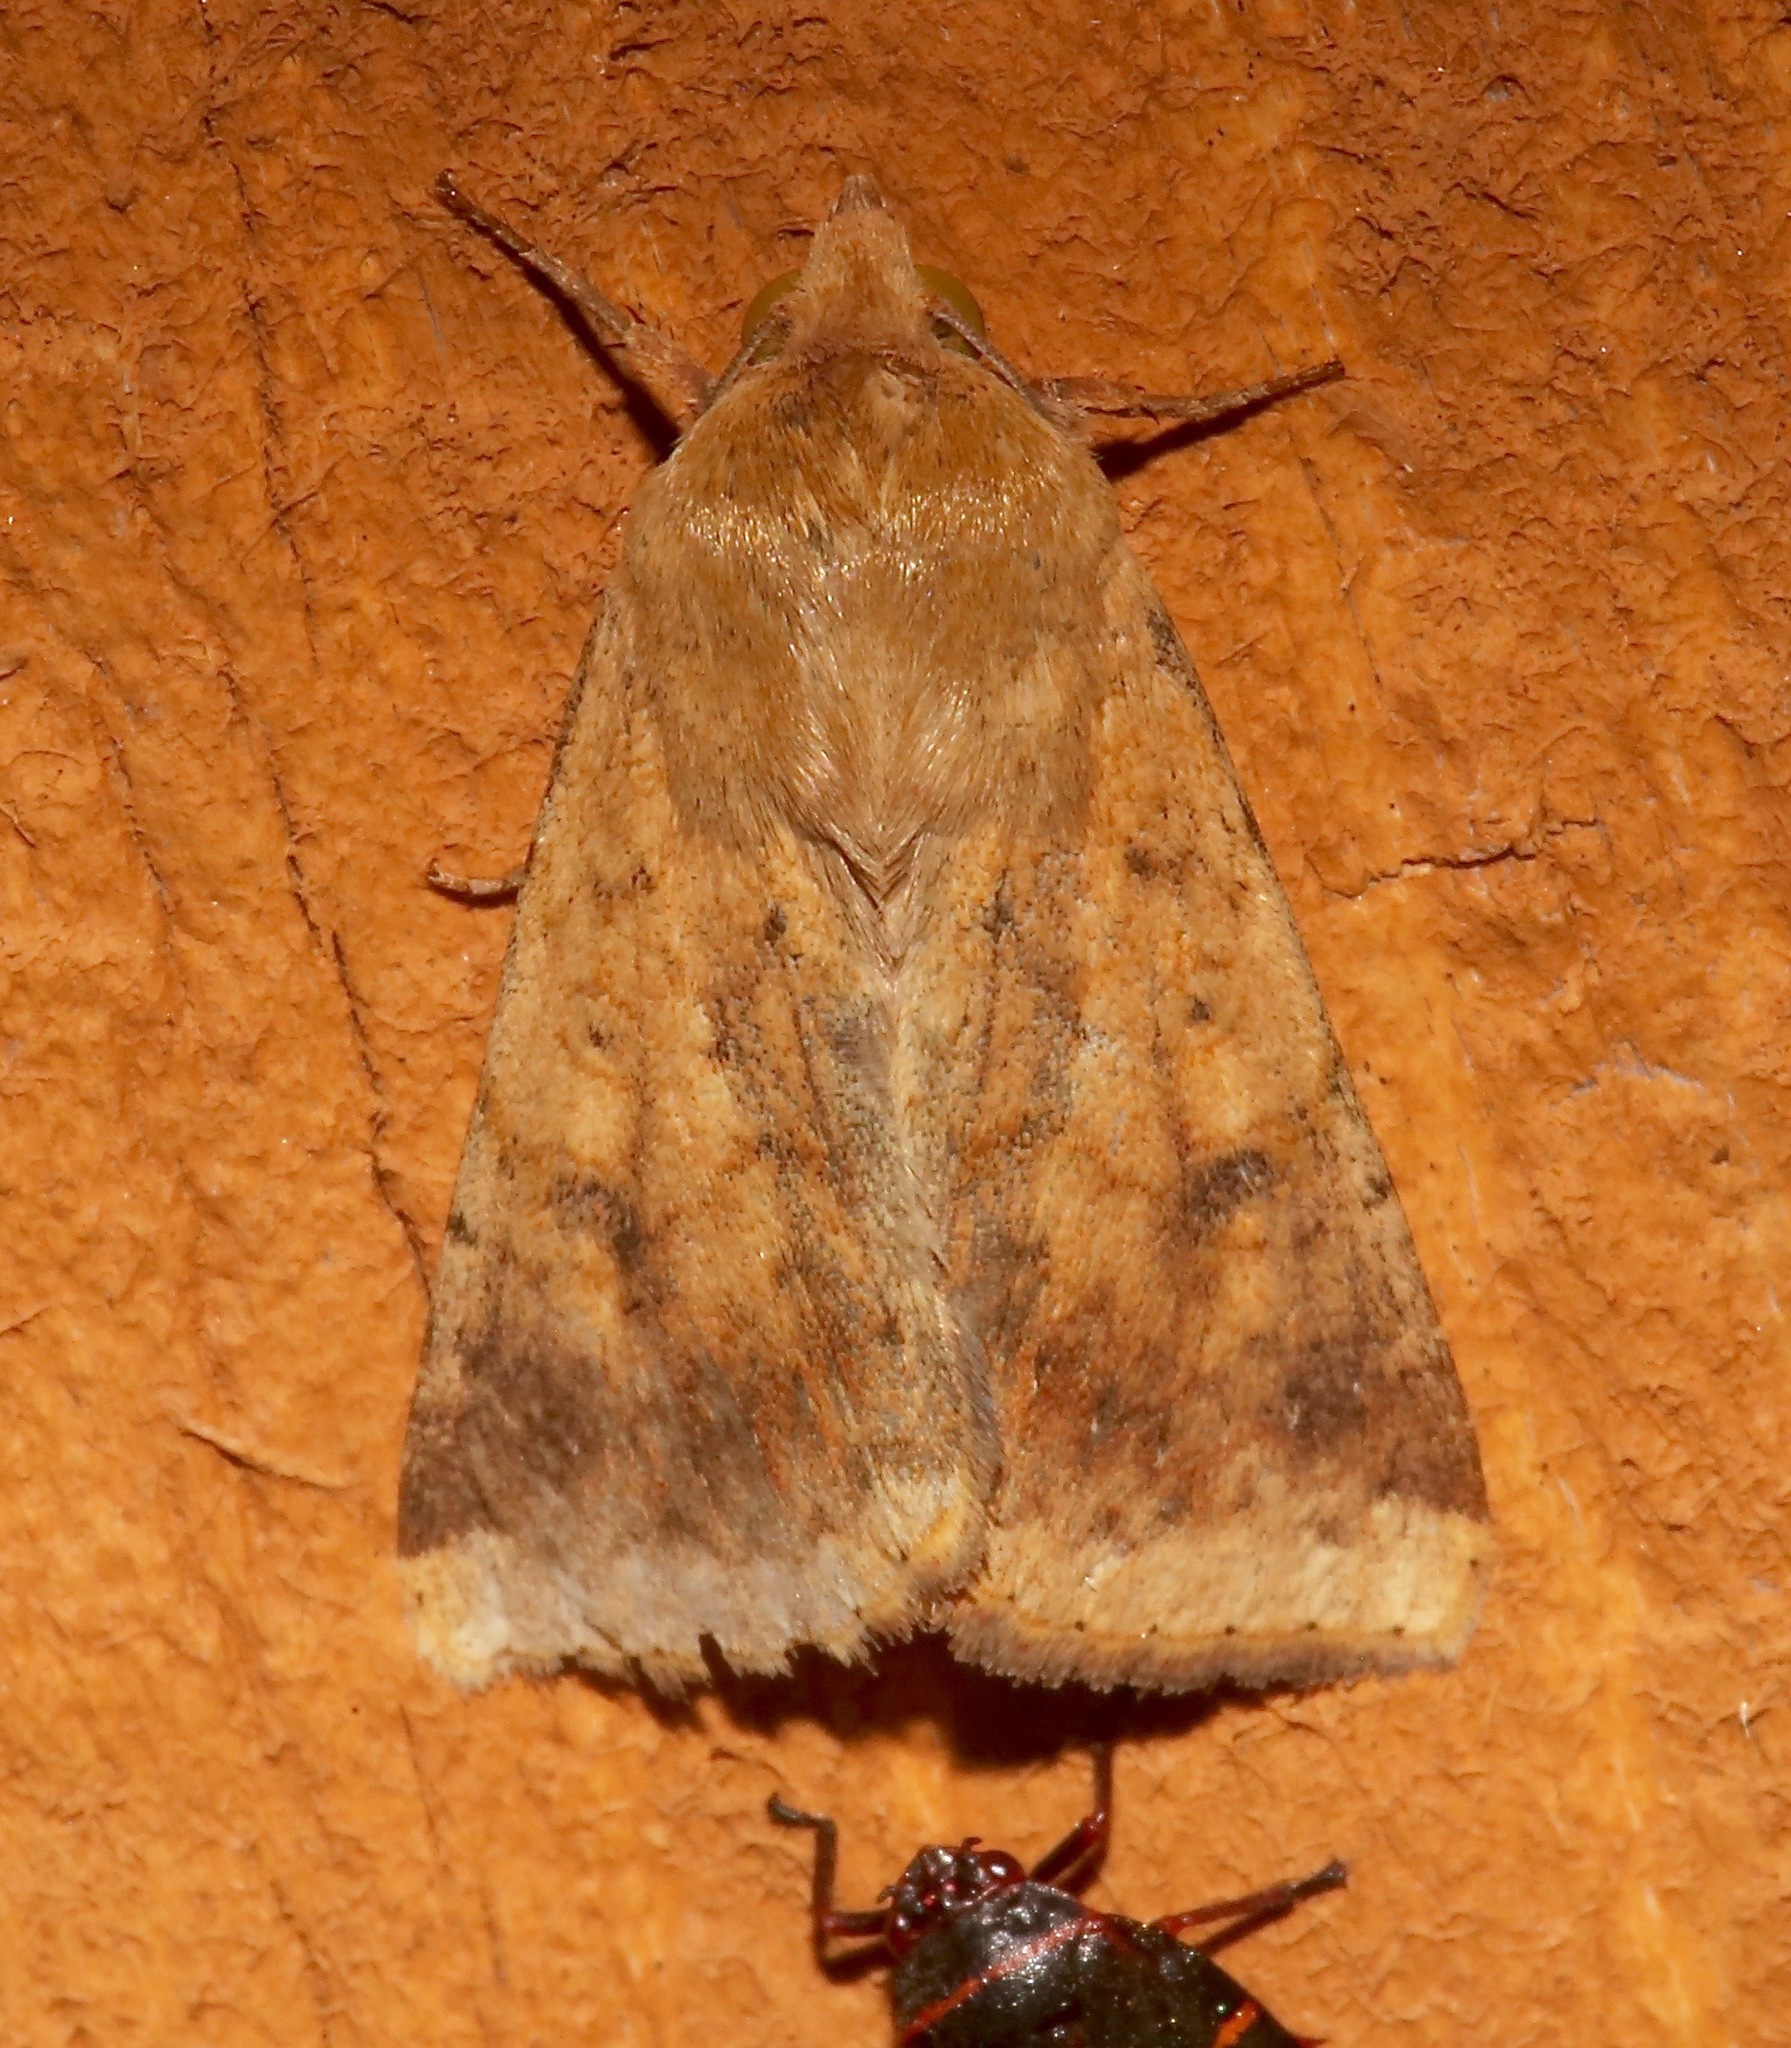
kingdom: Animalia
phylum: Arthropoda
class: Insecta
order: Lepidoptera
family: Noctuidae
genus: Helicoverpa
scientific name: Helicoverpa zea
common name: Bollworm
